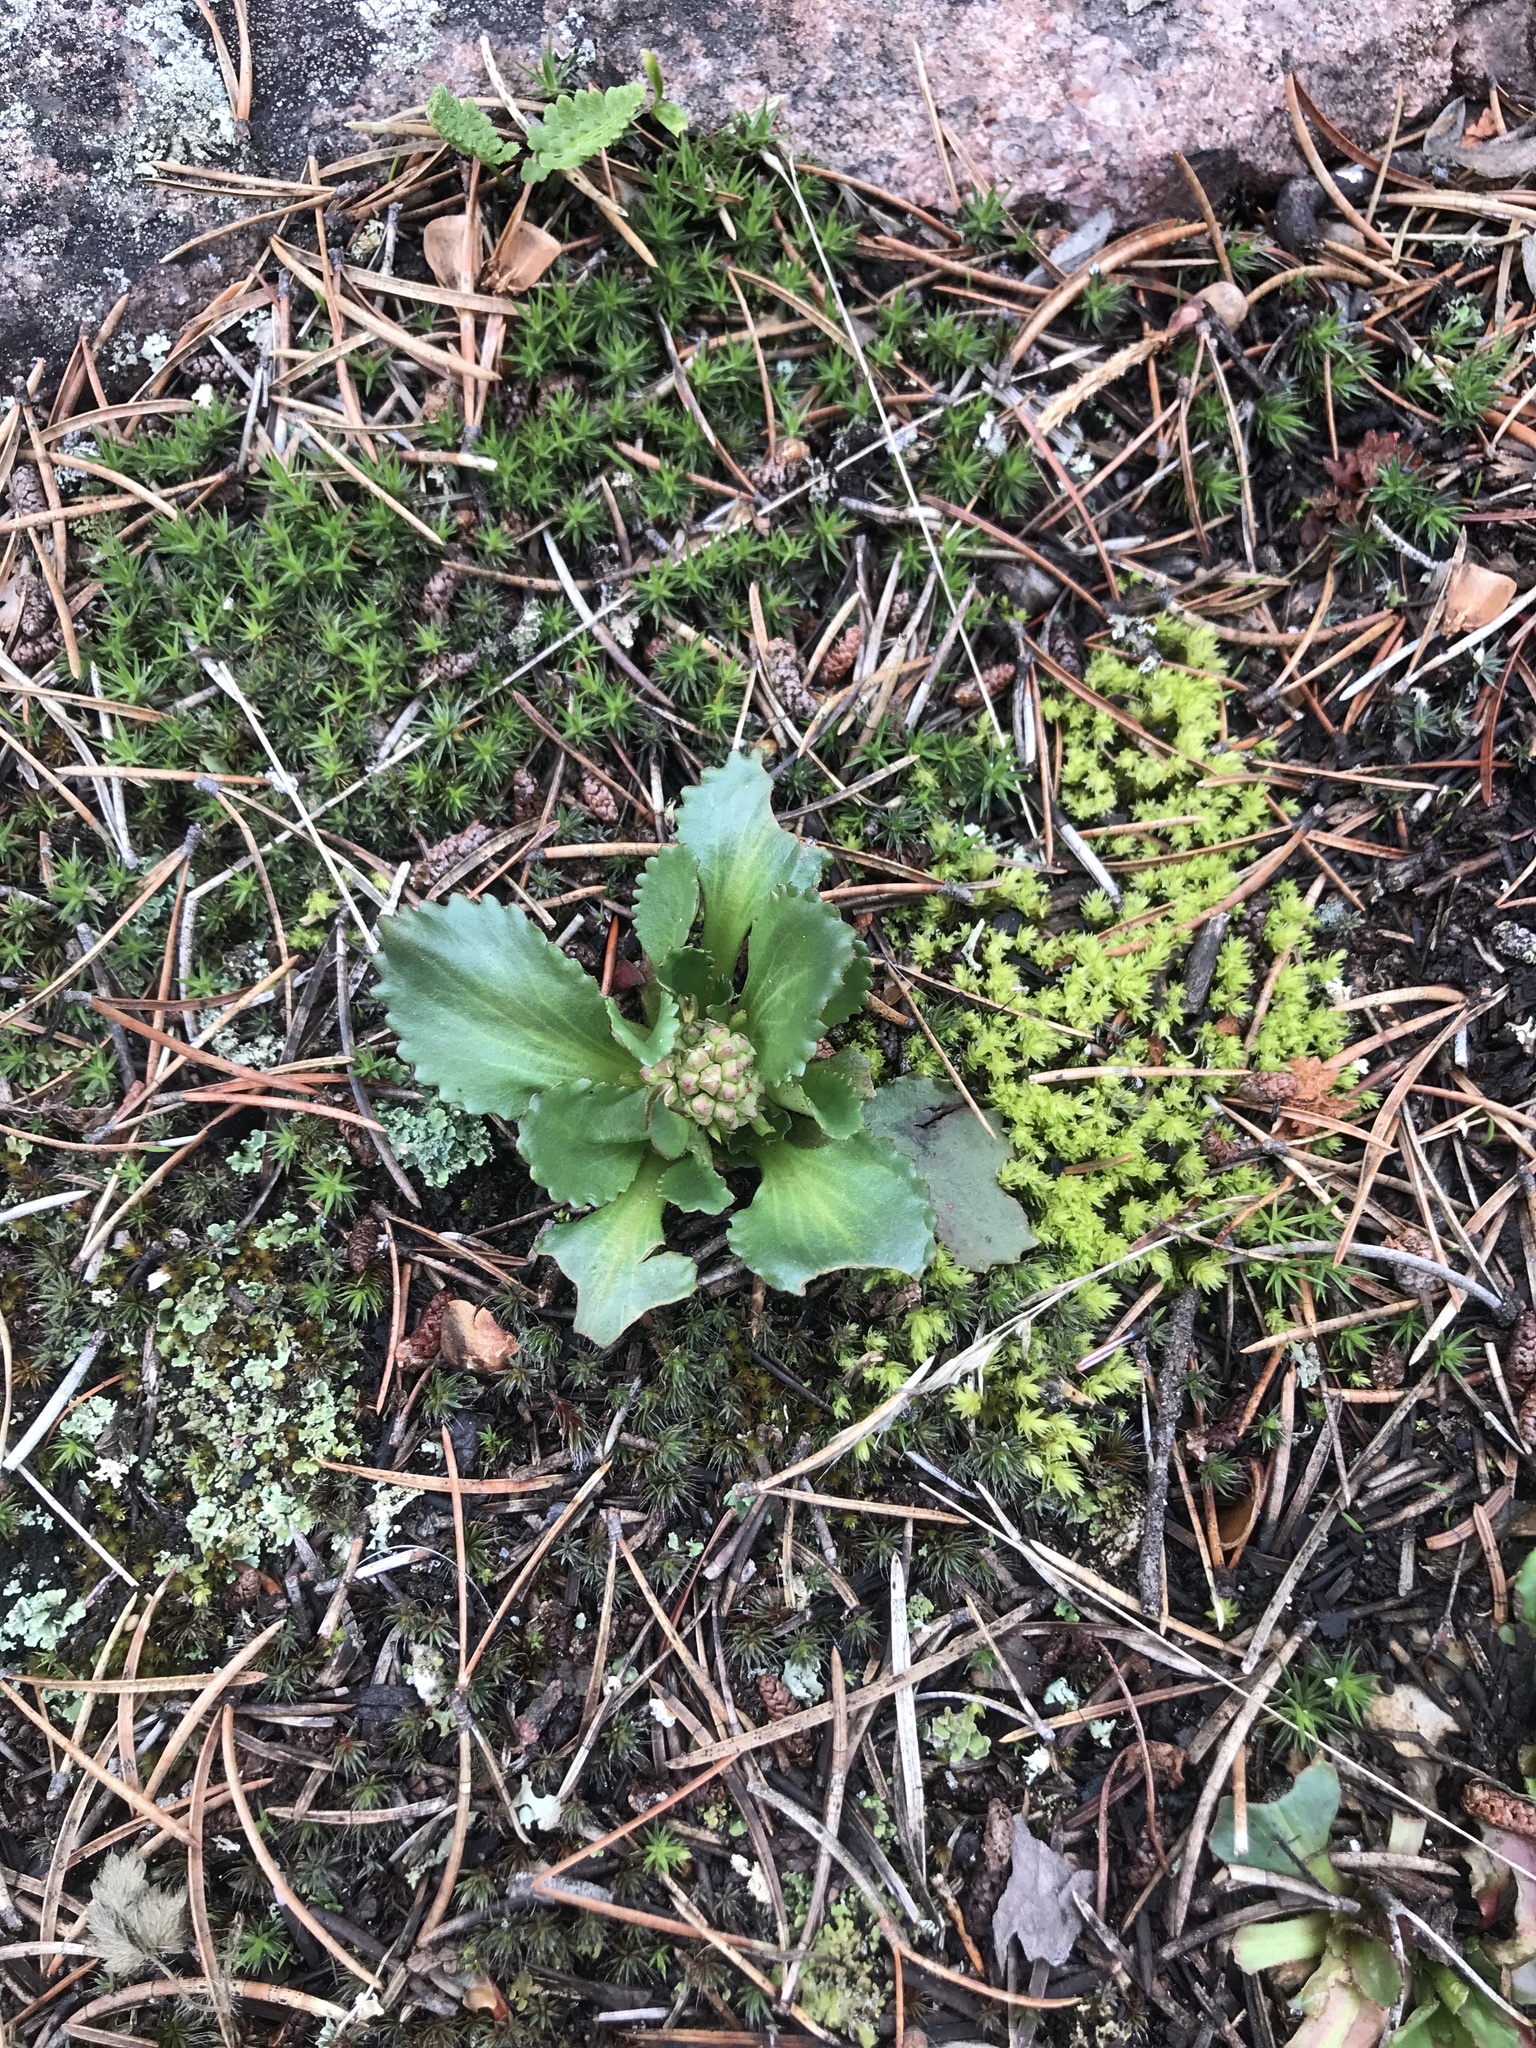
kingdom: Plantae
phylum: Tracheophyta
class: Magnoliopsida
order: Saxifragales
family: Saxifragaceae
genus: Micranthes
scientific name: Micranthes virginiensis
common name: Early saxifrage
